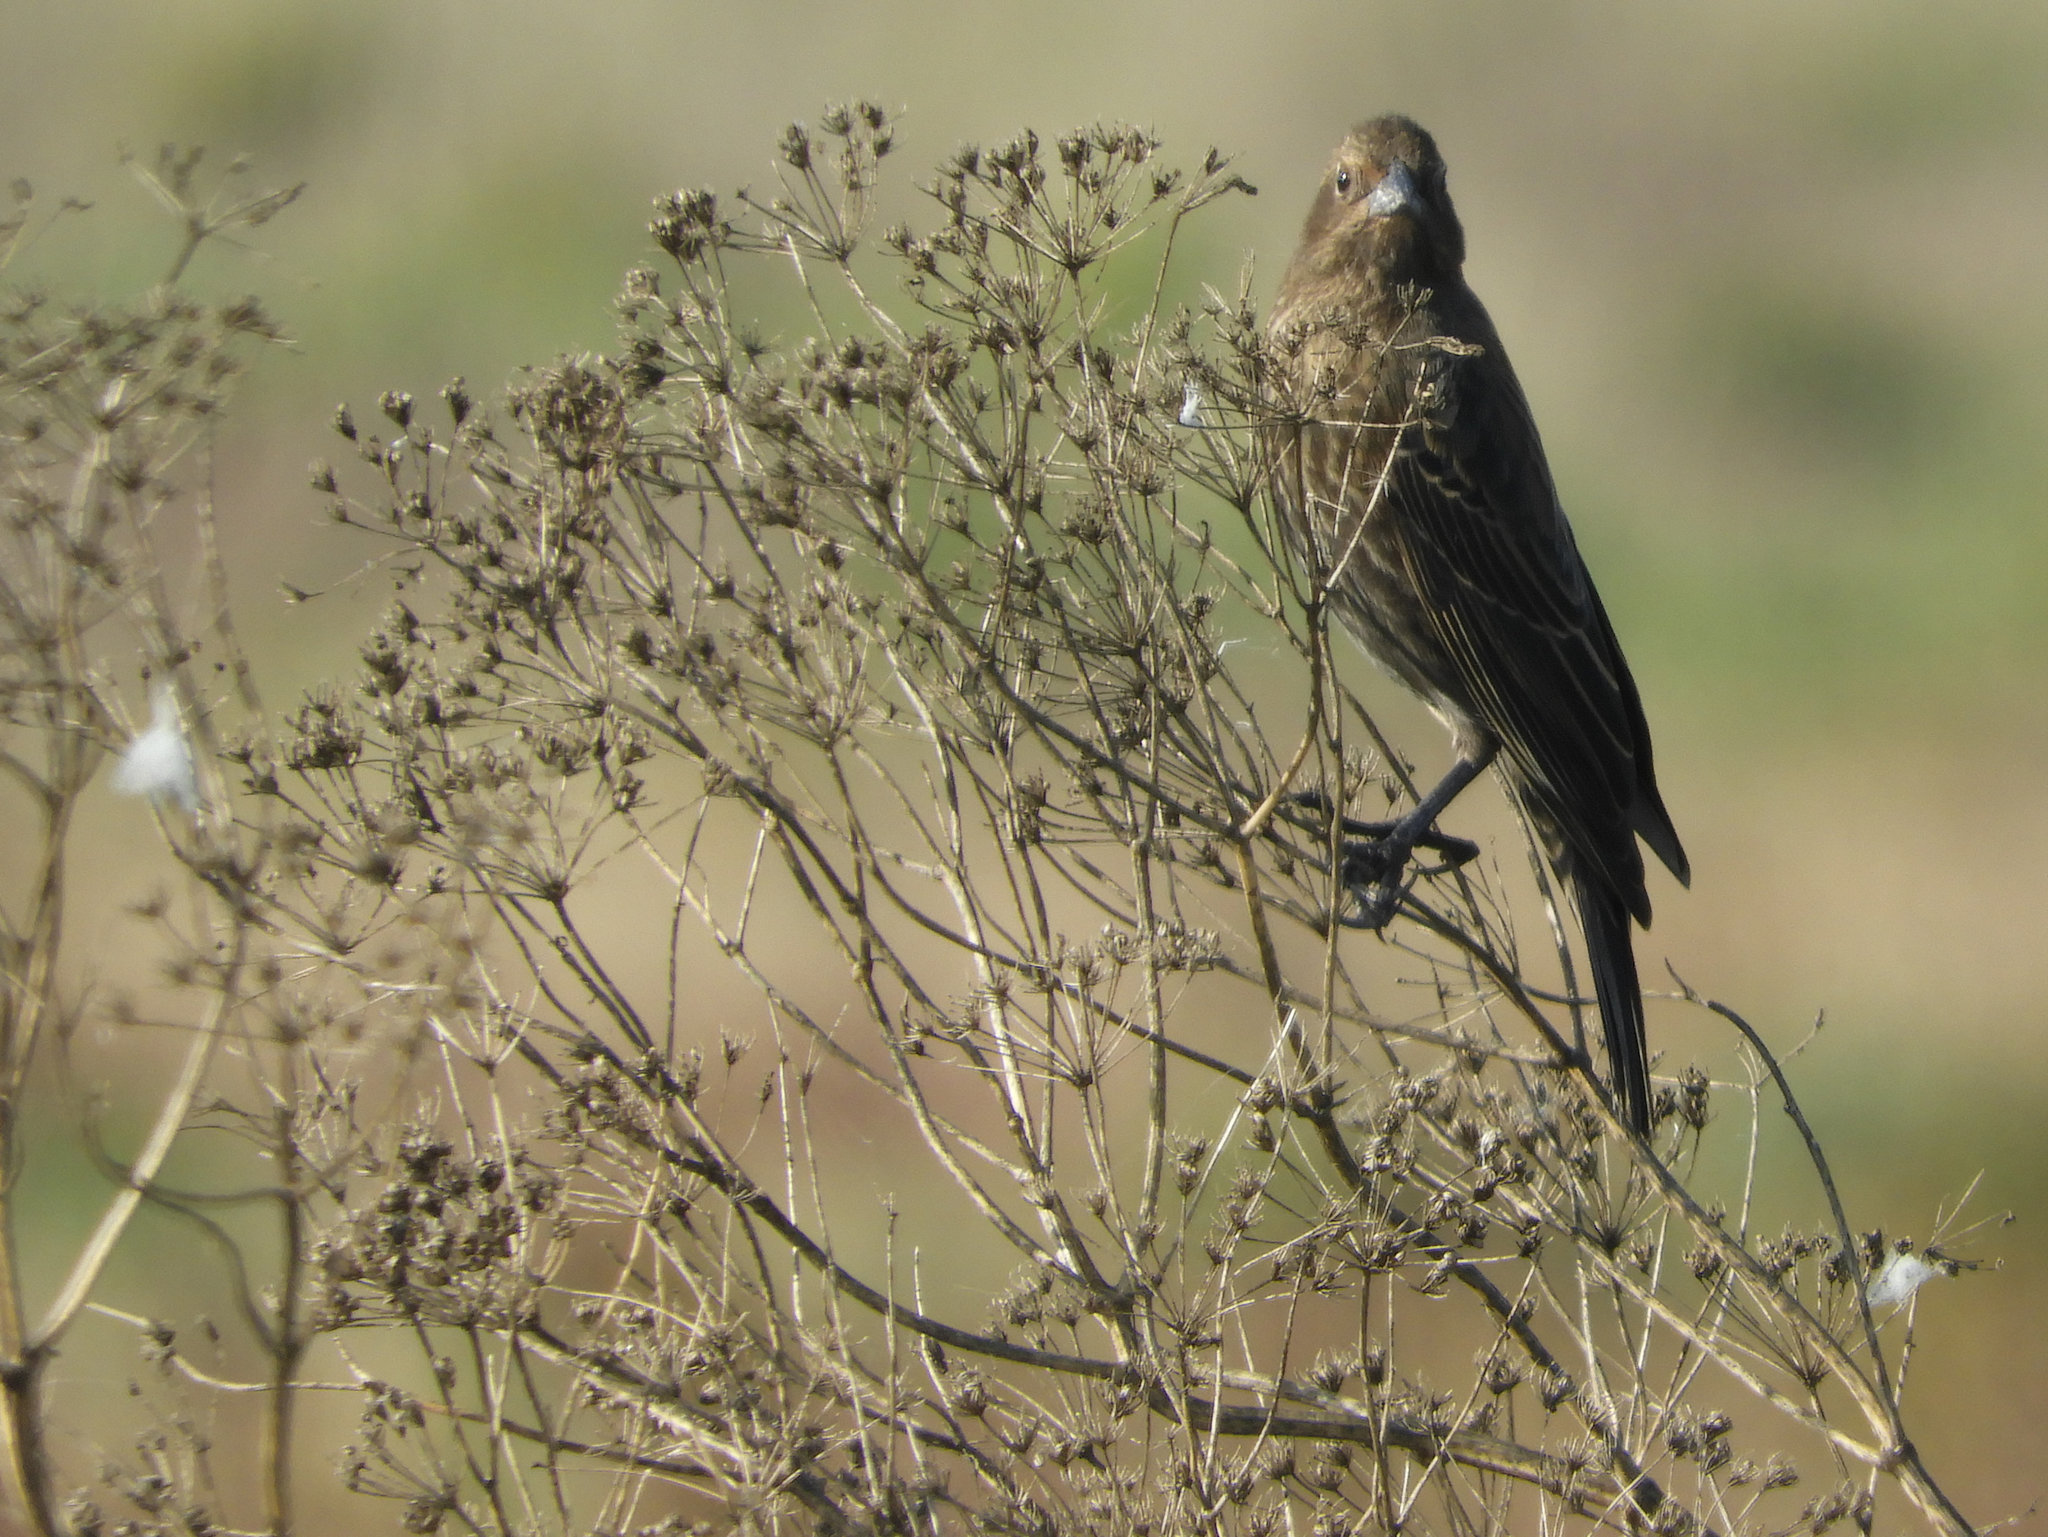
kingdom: Animalia
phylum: Chordata
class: Aves
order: Passeriformes
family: Icteridae
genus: Agelaius
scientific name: Agelaius phoeniceus
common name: Red-winged blackbird
